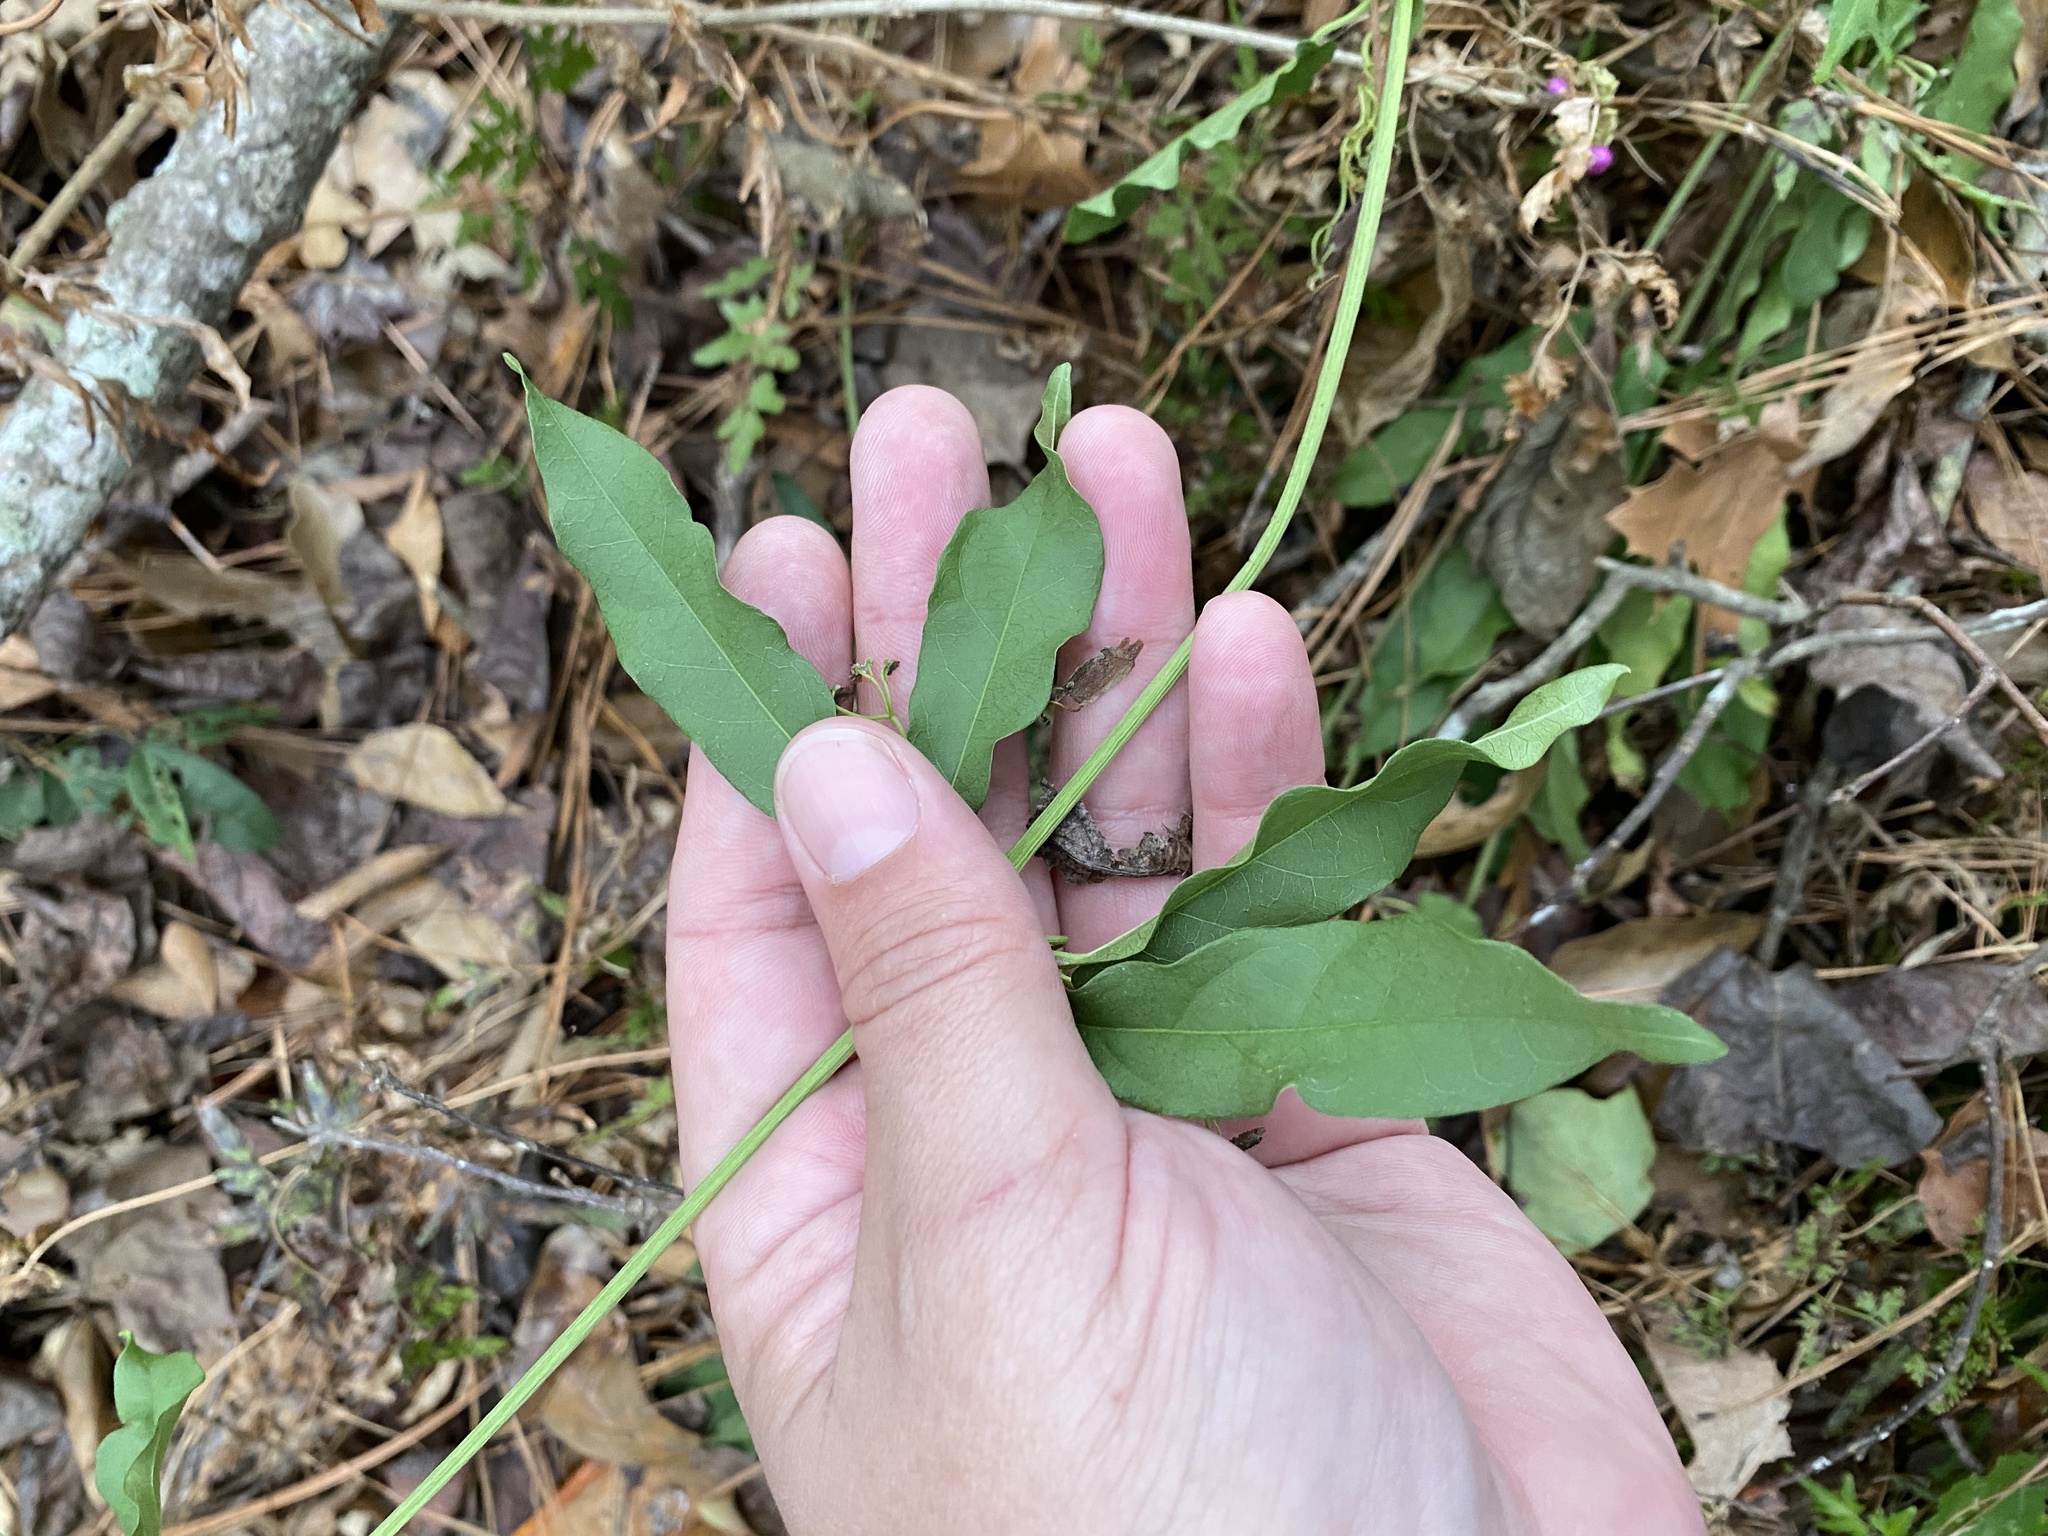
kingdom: Plantae
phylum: Tracheophyta
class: Magnoliopsida
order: Lamiales
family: Bignoniaceae
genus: Bignonia
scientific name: Bignonia capreolata
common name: Crossvine
